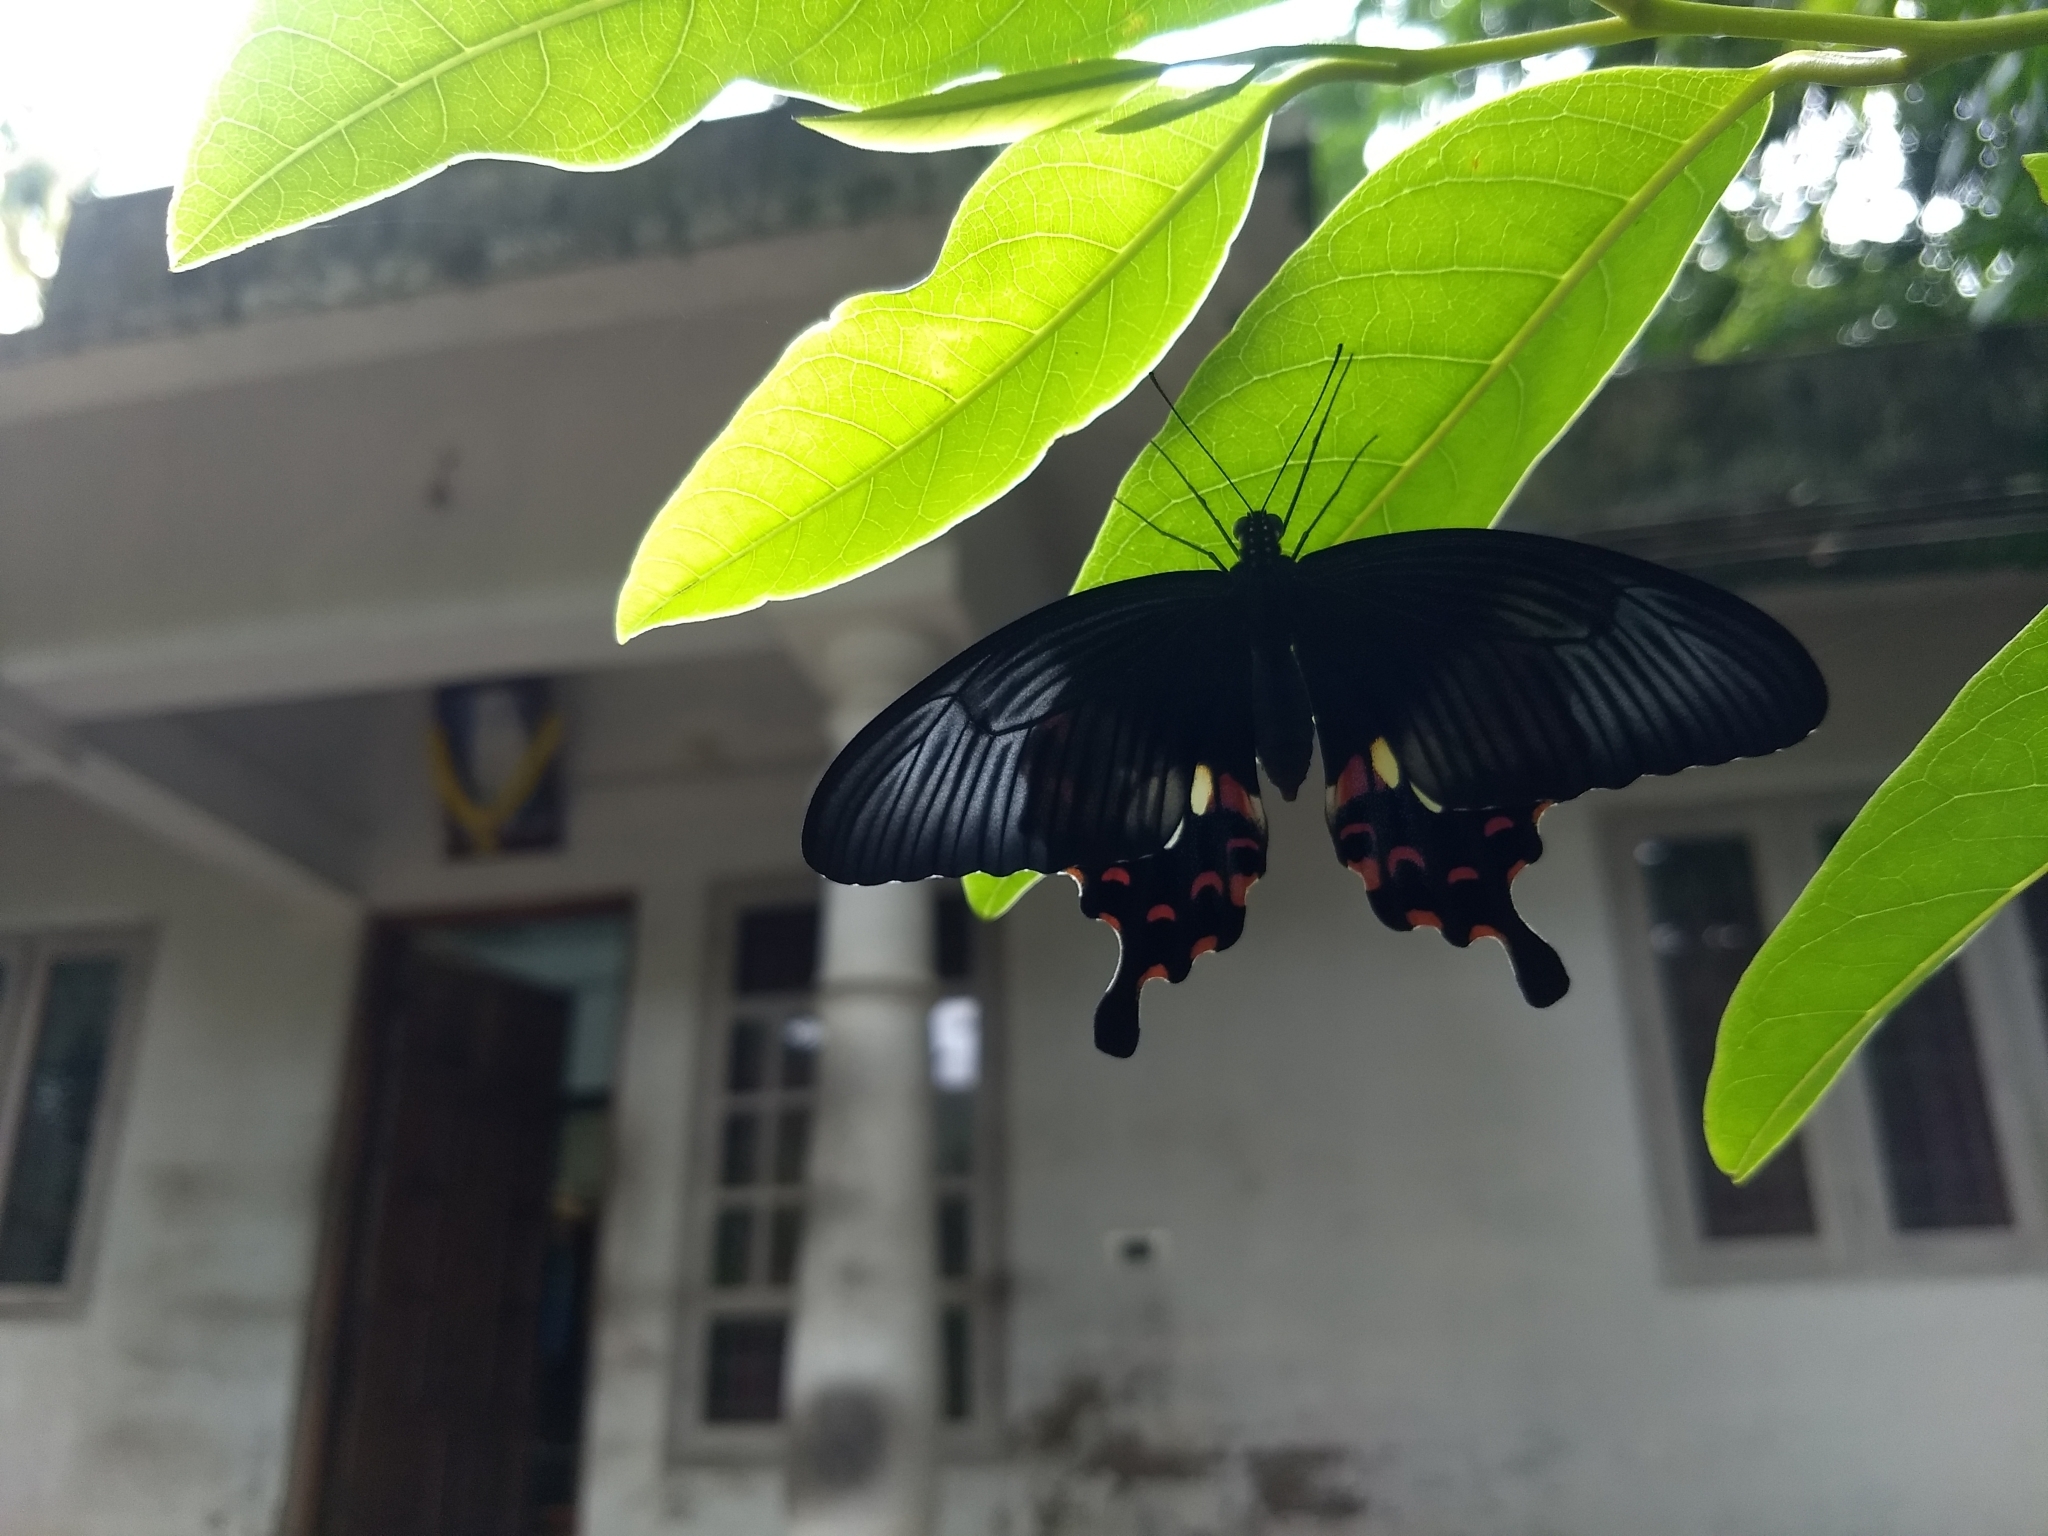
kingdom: Animalia
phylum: Arthropoda
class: Insecta
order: Lepidoptera
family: Papilionidae
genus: Papilio
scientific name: Papilio polytes
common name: Common mormon
